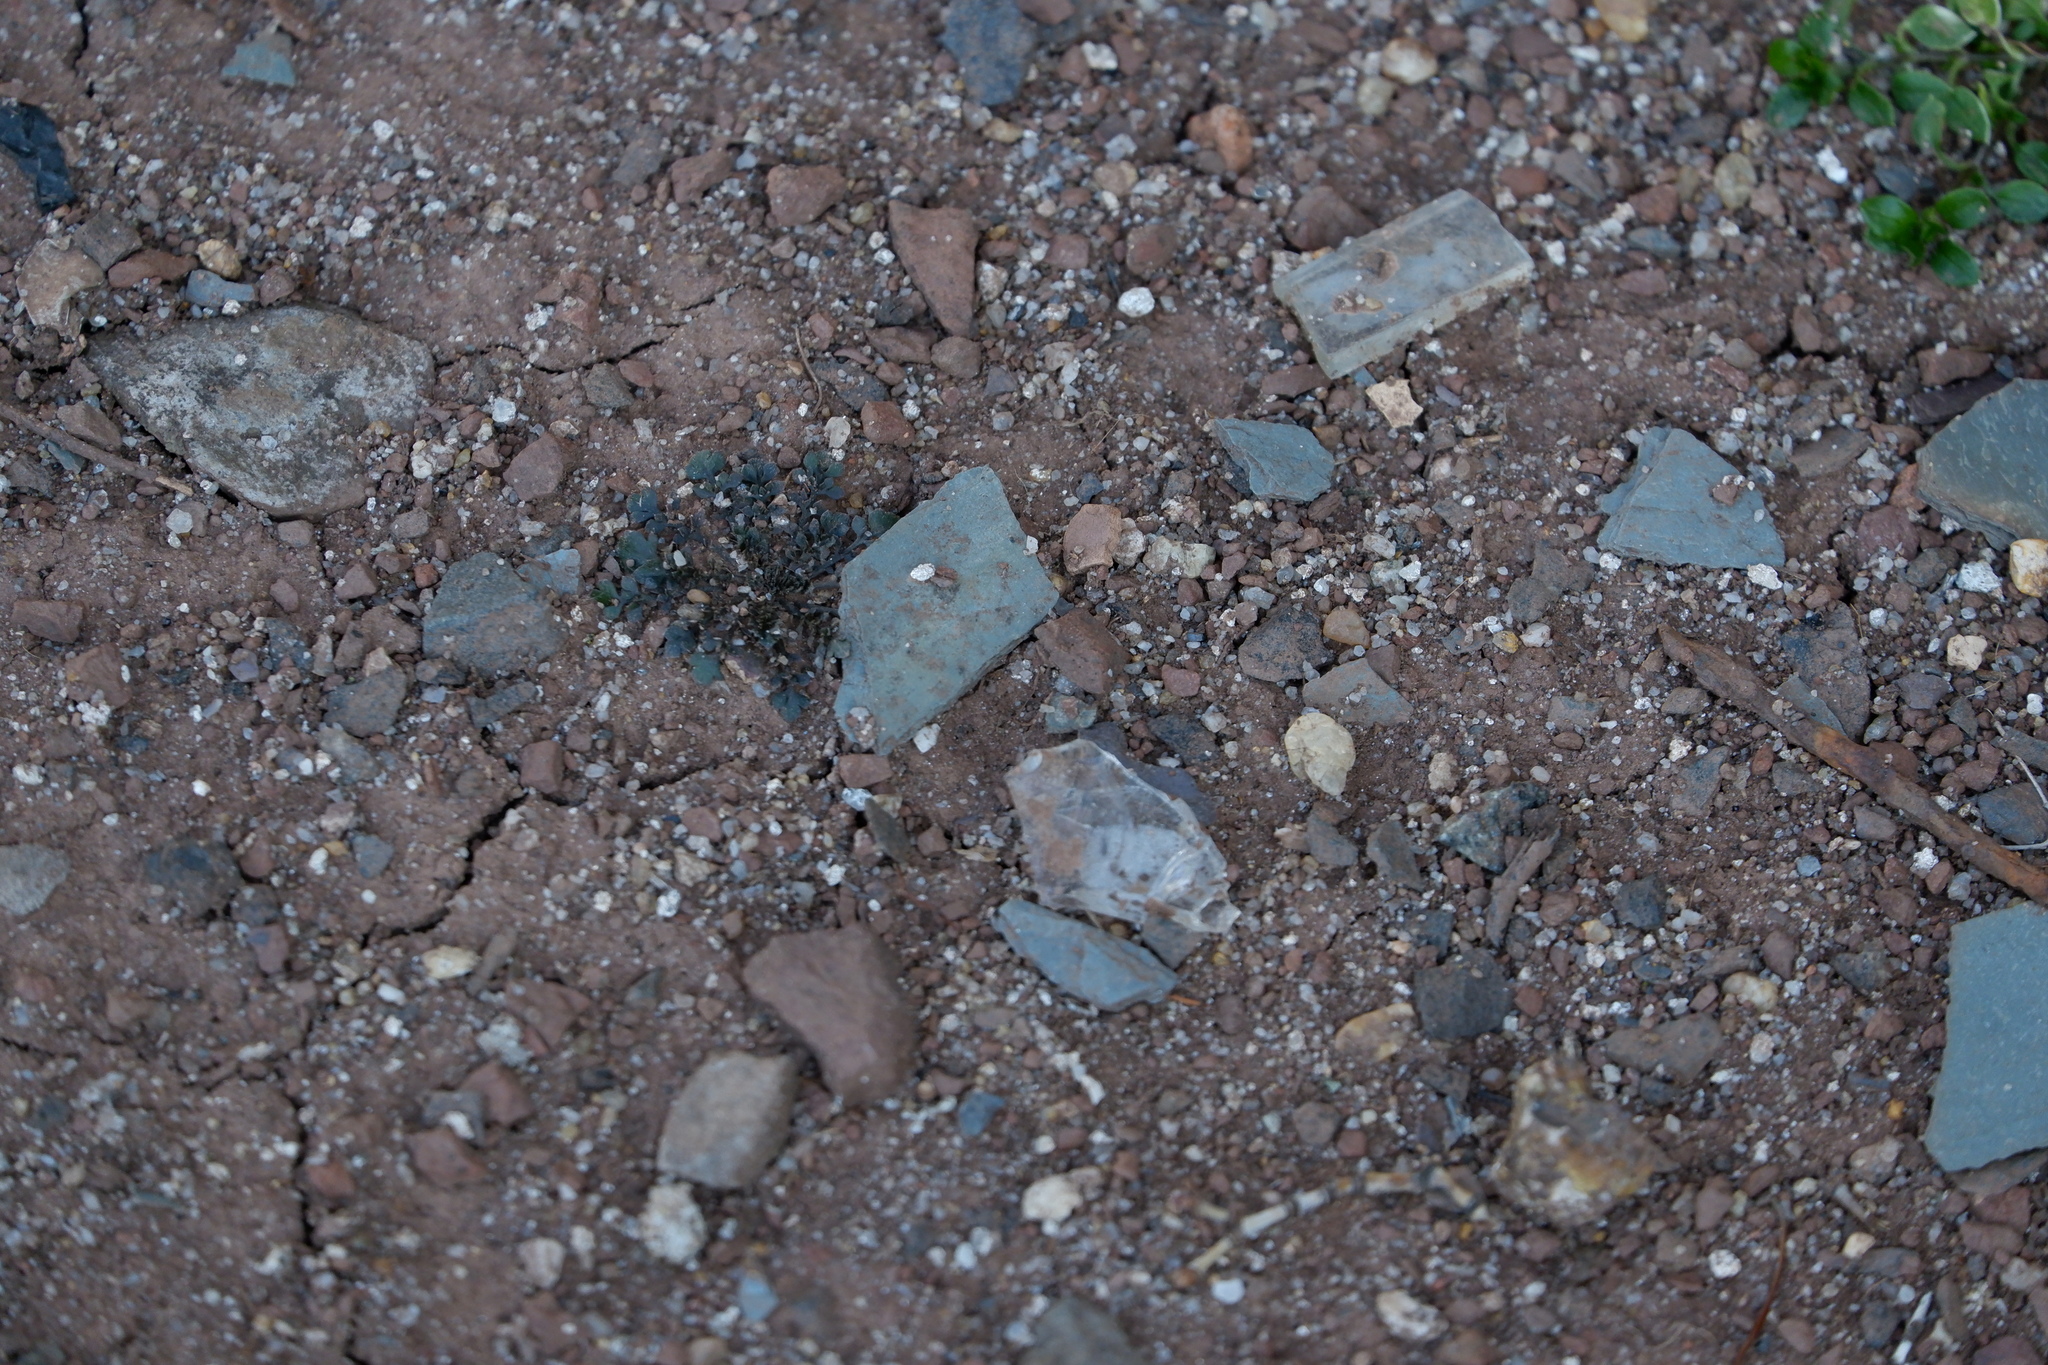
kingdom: Plantae
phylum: Tracheophyta
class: Magnoliopsida
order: Brassicales
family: Brassicaceae
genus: Lepidium
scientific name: Lepidium didymum
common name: Lesser swinecress
